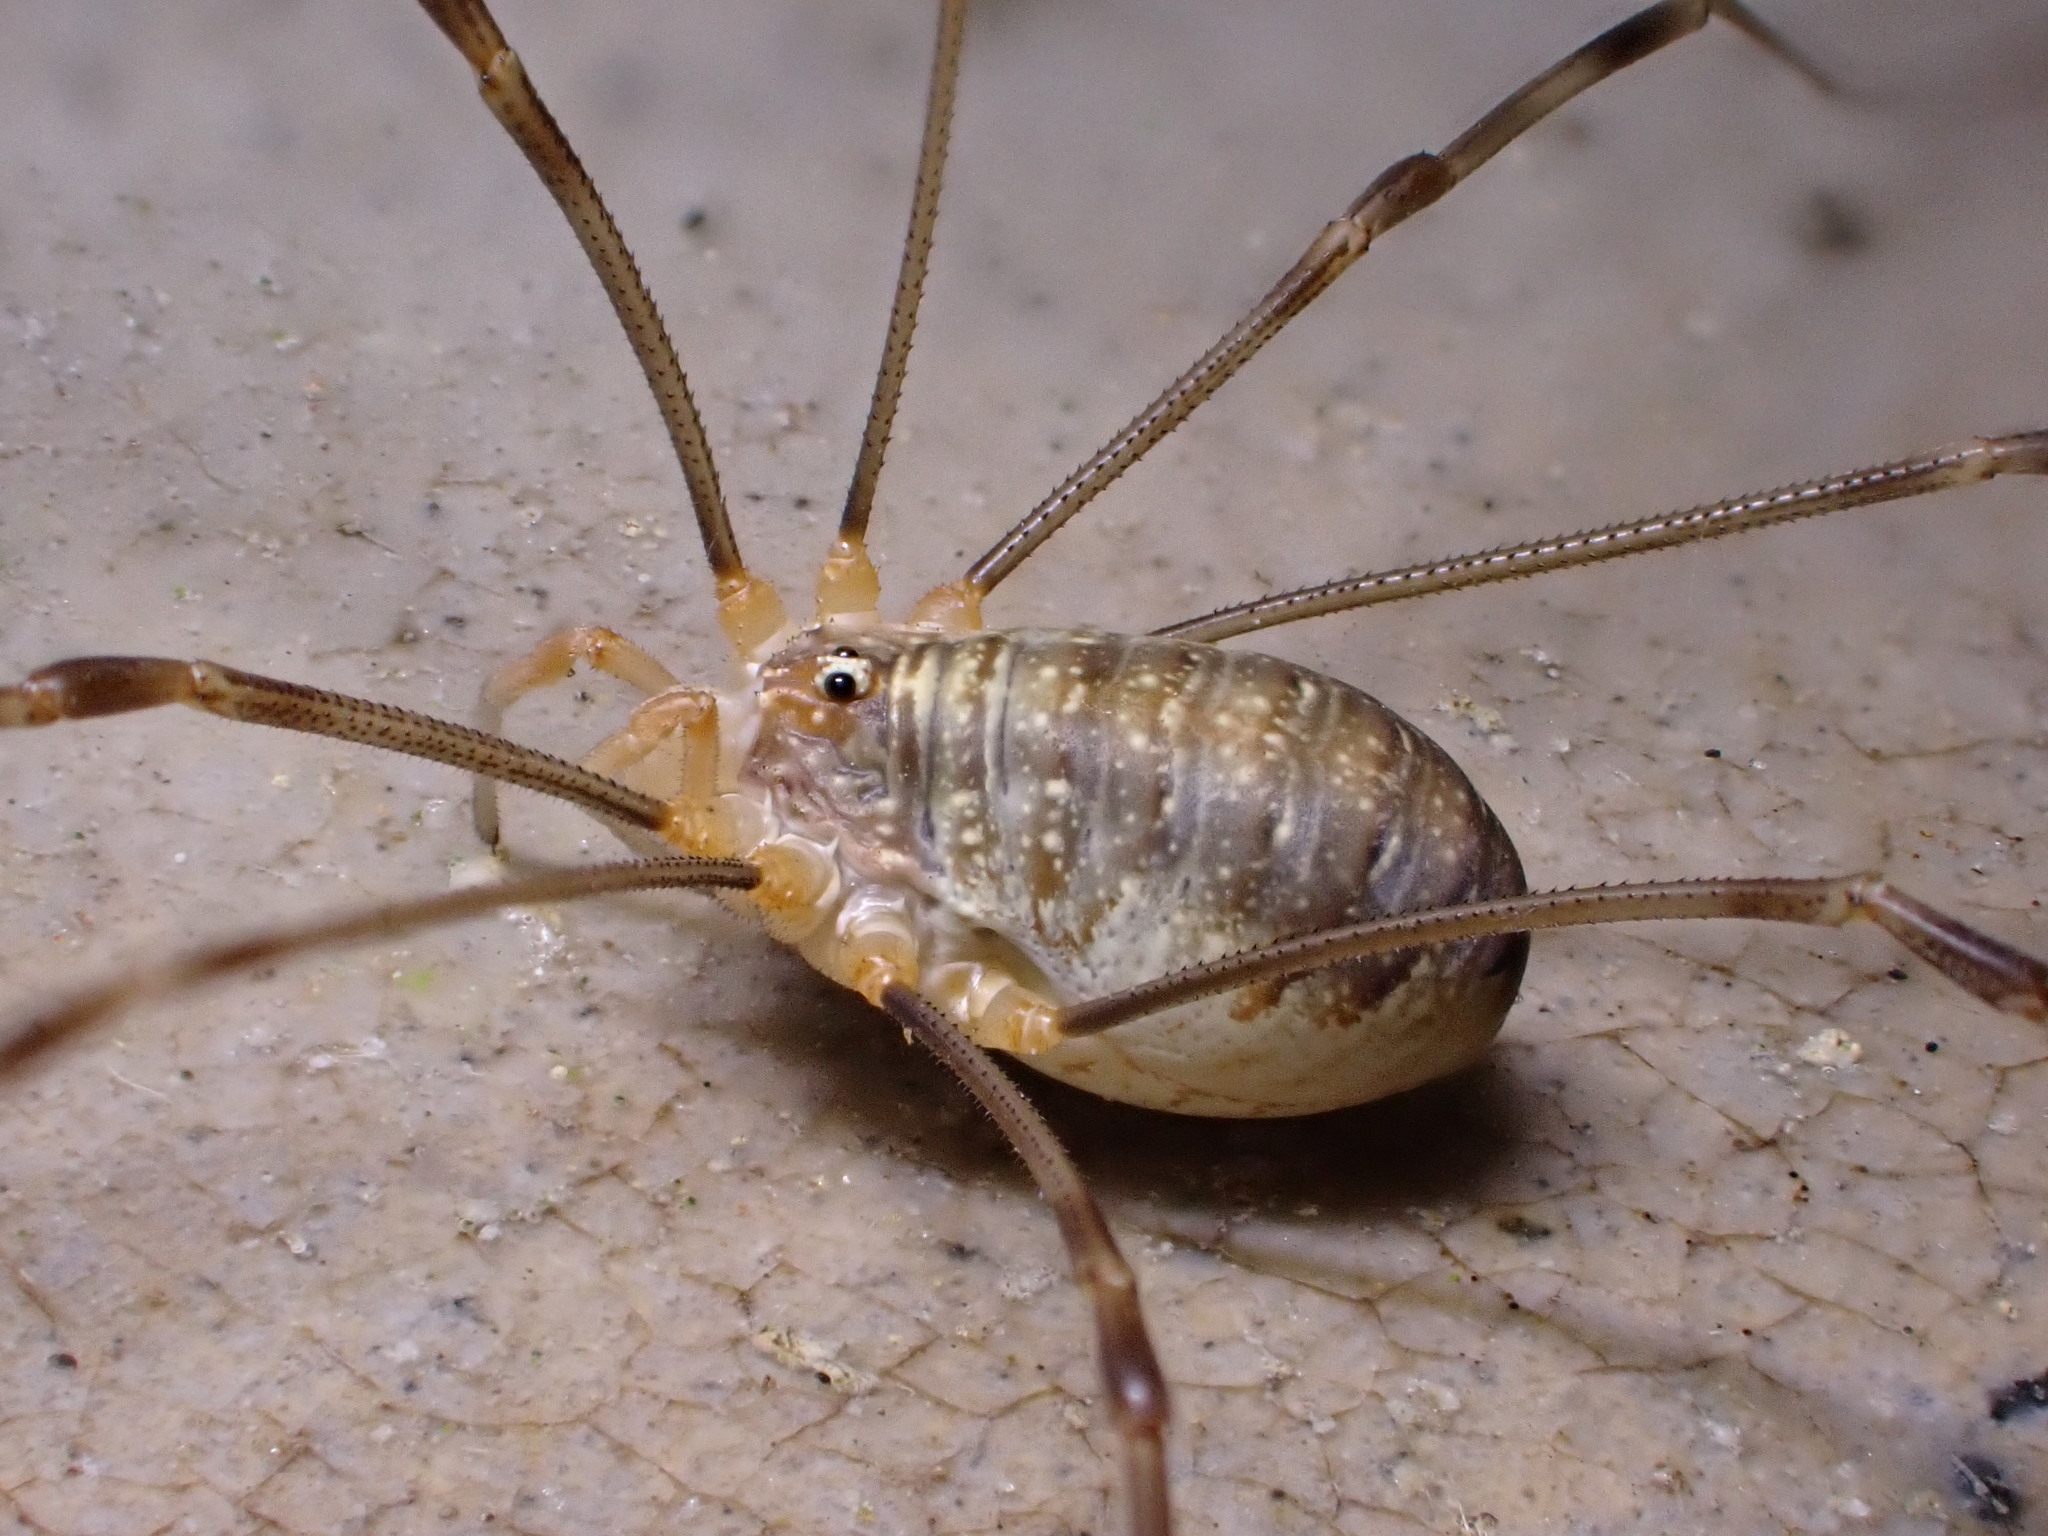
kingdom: Animalia
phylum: Arthropoda
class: Arachnida
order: Opiliones
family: Phalangiidae
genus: Opilio
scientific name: Opilio canestrinii
